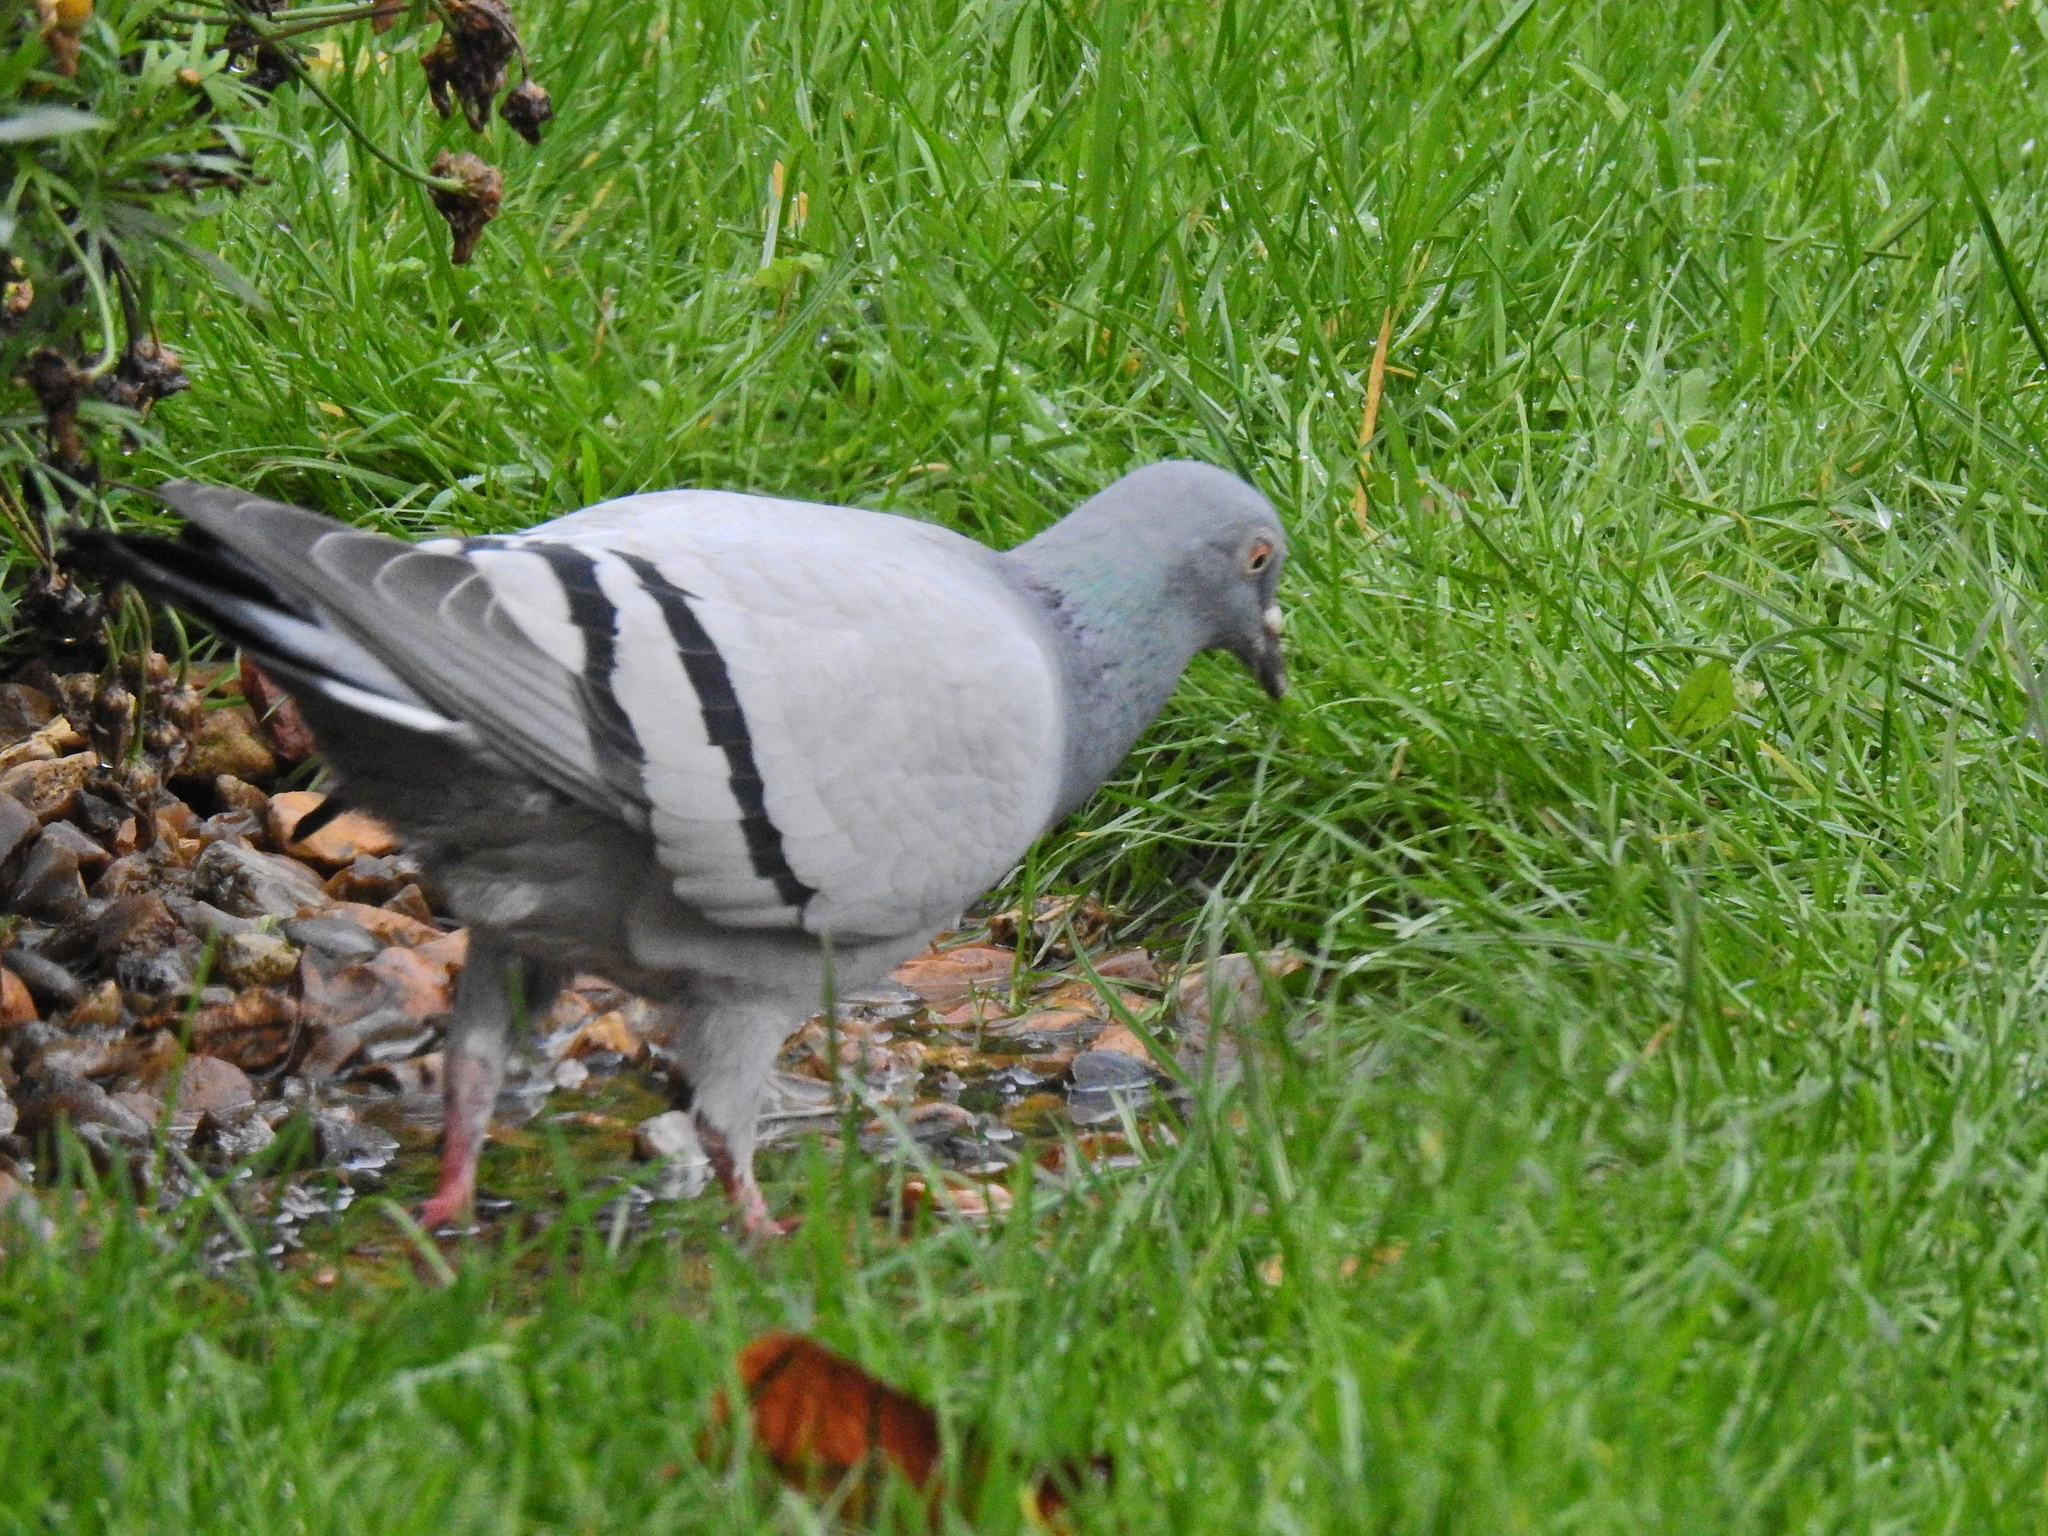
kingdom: Animalia
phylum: Chordata
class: Aves
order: Columbiformes
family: Columbidae
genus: Columba
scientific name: Columba livia
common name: Rock pigeon
